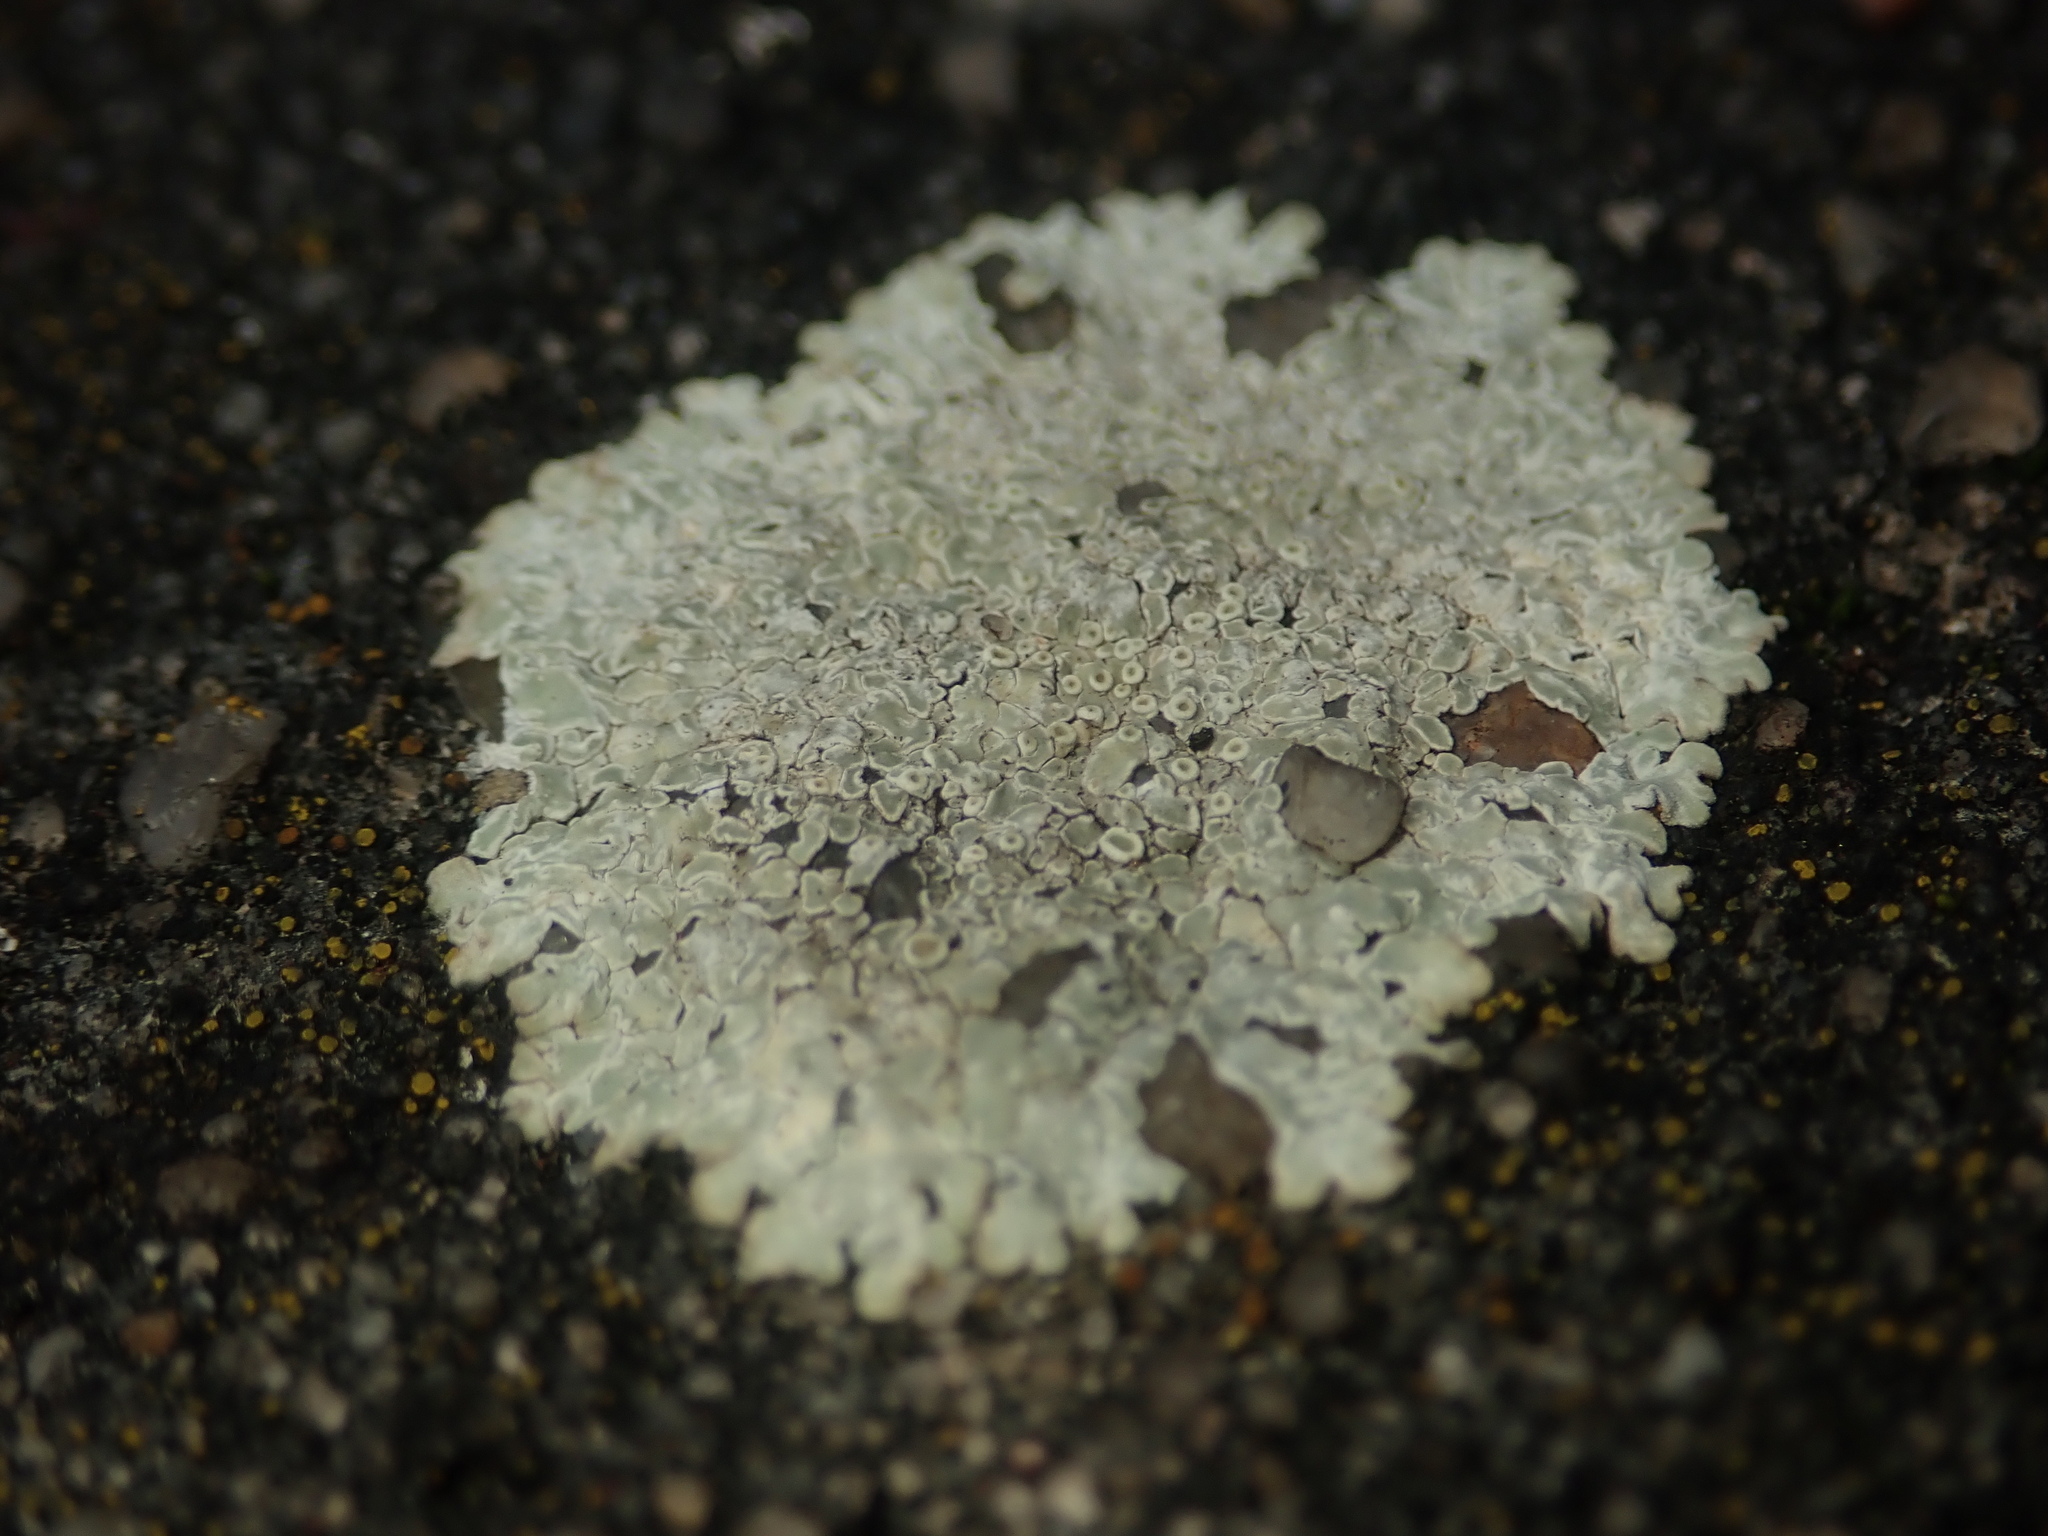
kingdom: Fungi
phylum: Ascomycota
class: Lecanoromycetes
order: Lecanorales
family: Lecanoraceae
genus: Protoparmeliopsis
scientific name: Protoparmeliopsis muralis
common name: Stonewall rim lichen
